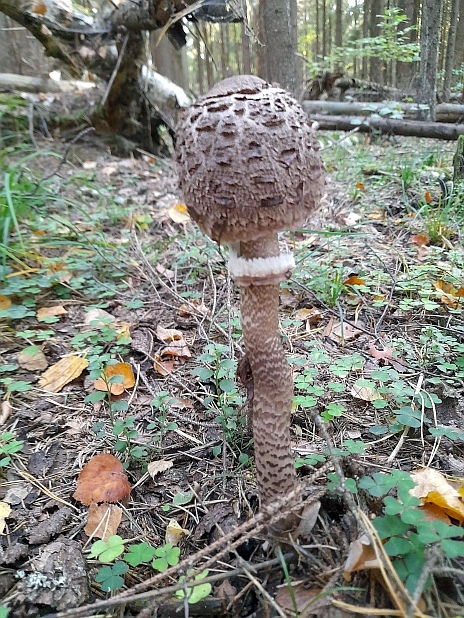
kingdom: Fungi
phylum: Basidiomycota
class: Agaricomycetes
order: Agaricales
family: Agaricaceae
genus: Macrolepiota
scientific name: Macrolepiota procera
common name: Parasol
